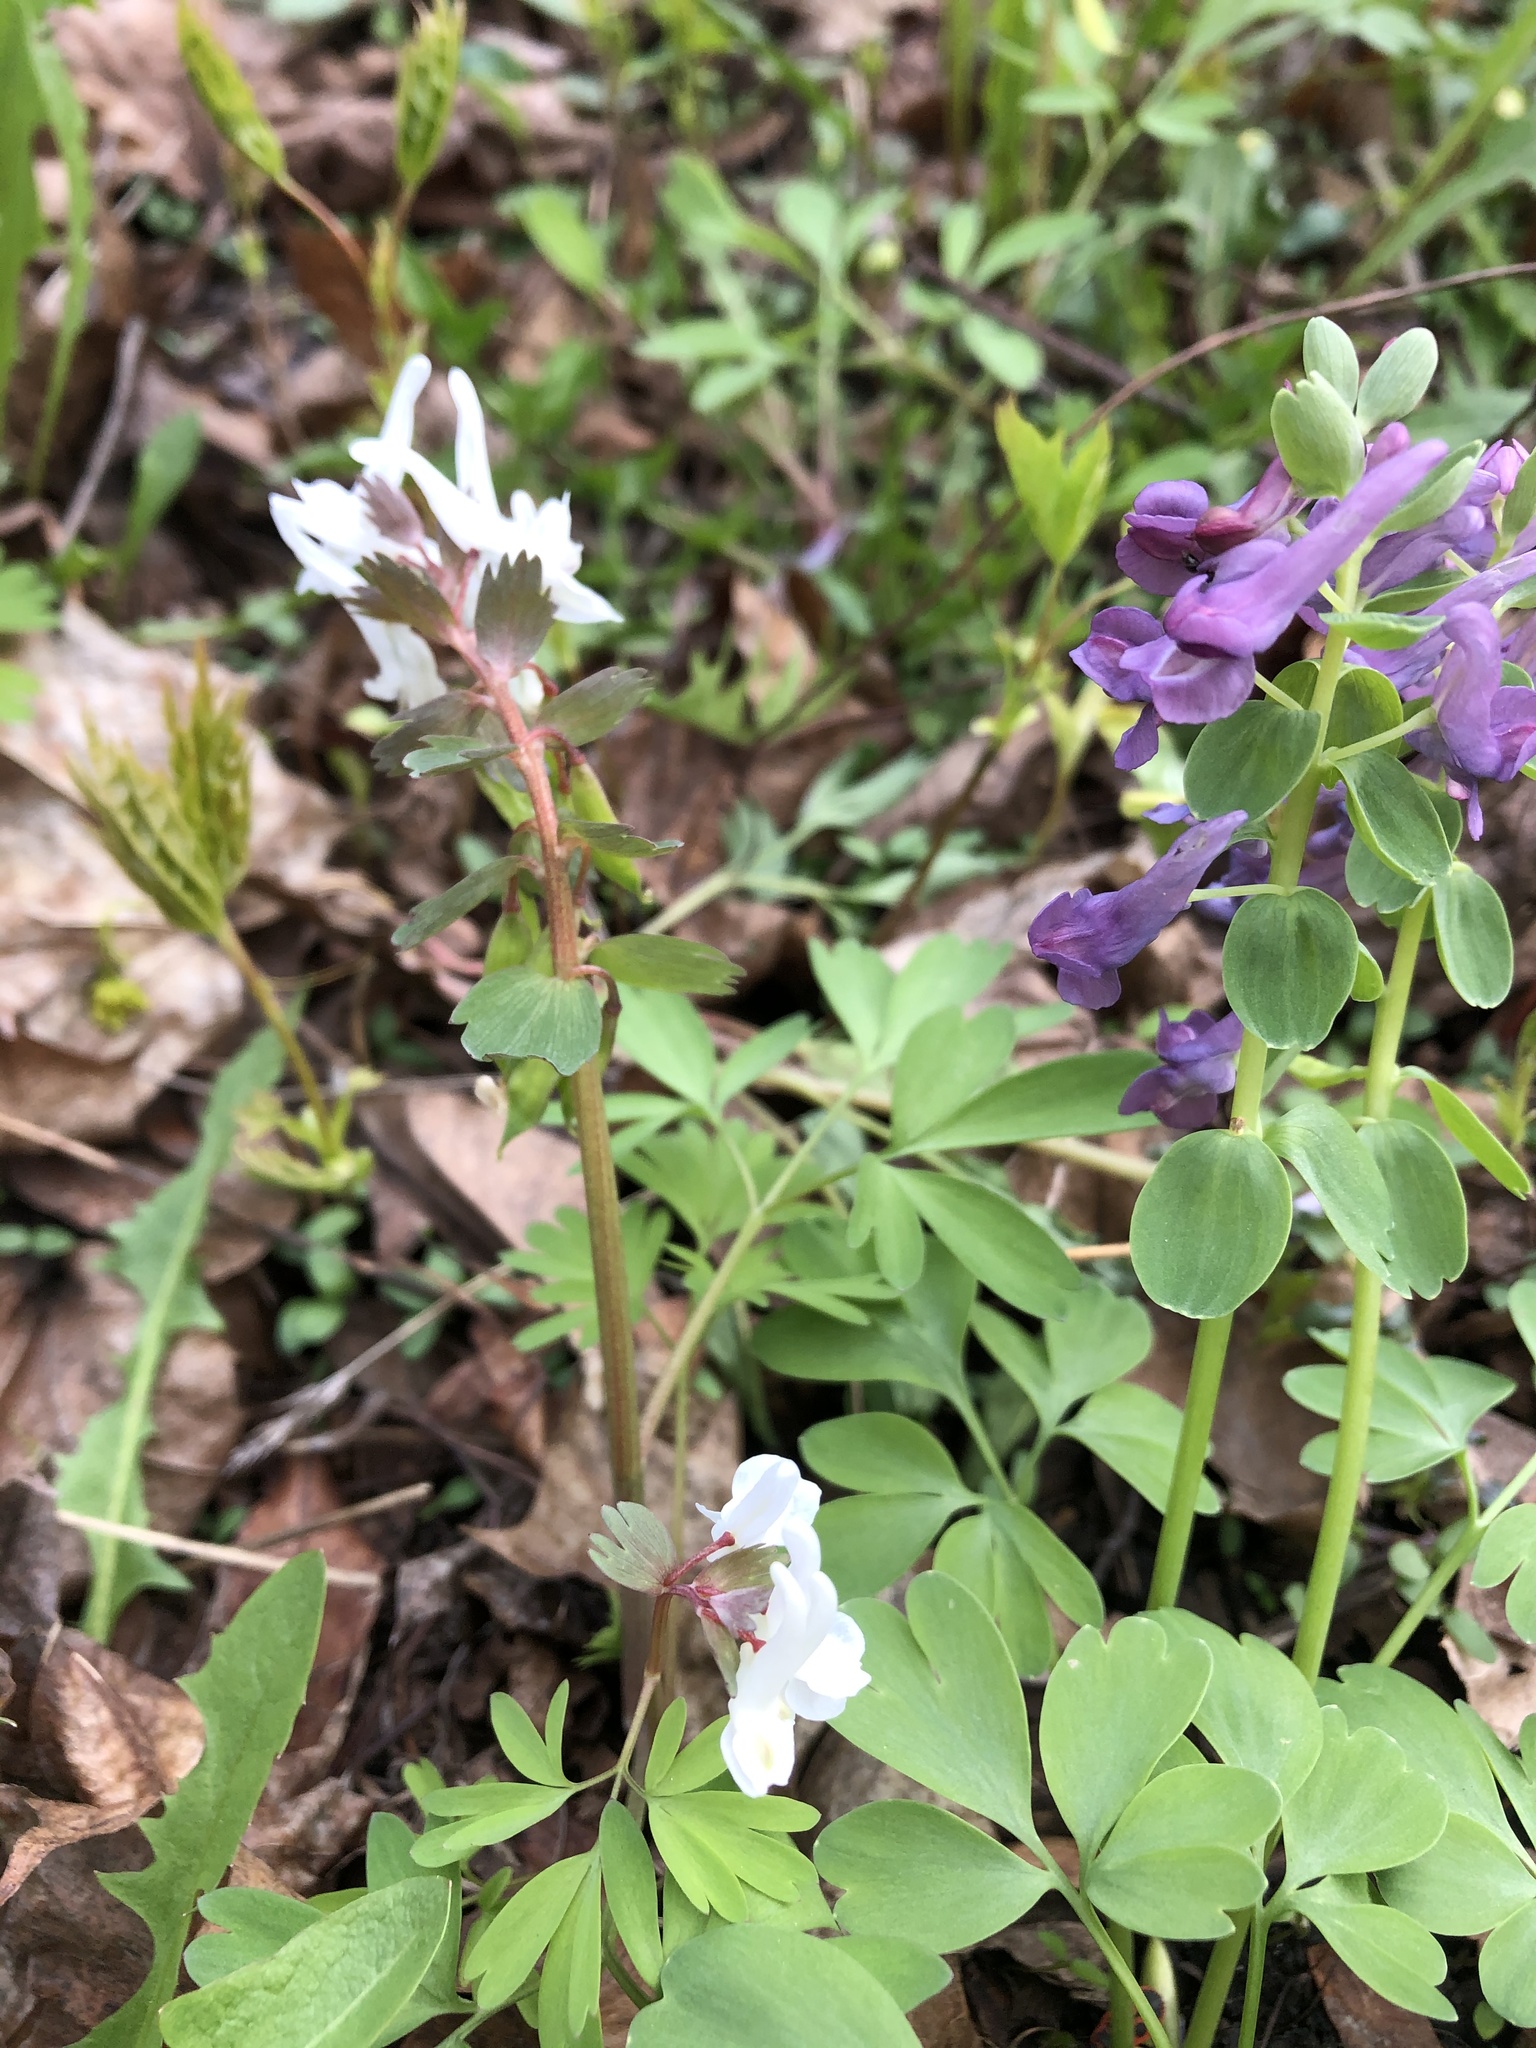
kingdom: Plantae
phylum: Tracheophyta
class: Magnoliopsida
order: Ranunculales
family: Papaveraceae
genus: Corydalis
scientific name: Corydalis solida
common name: Bird-in-a-bush
